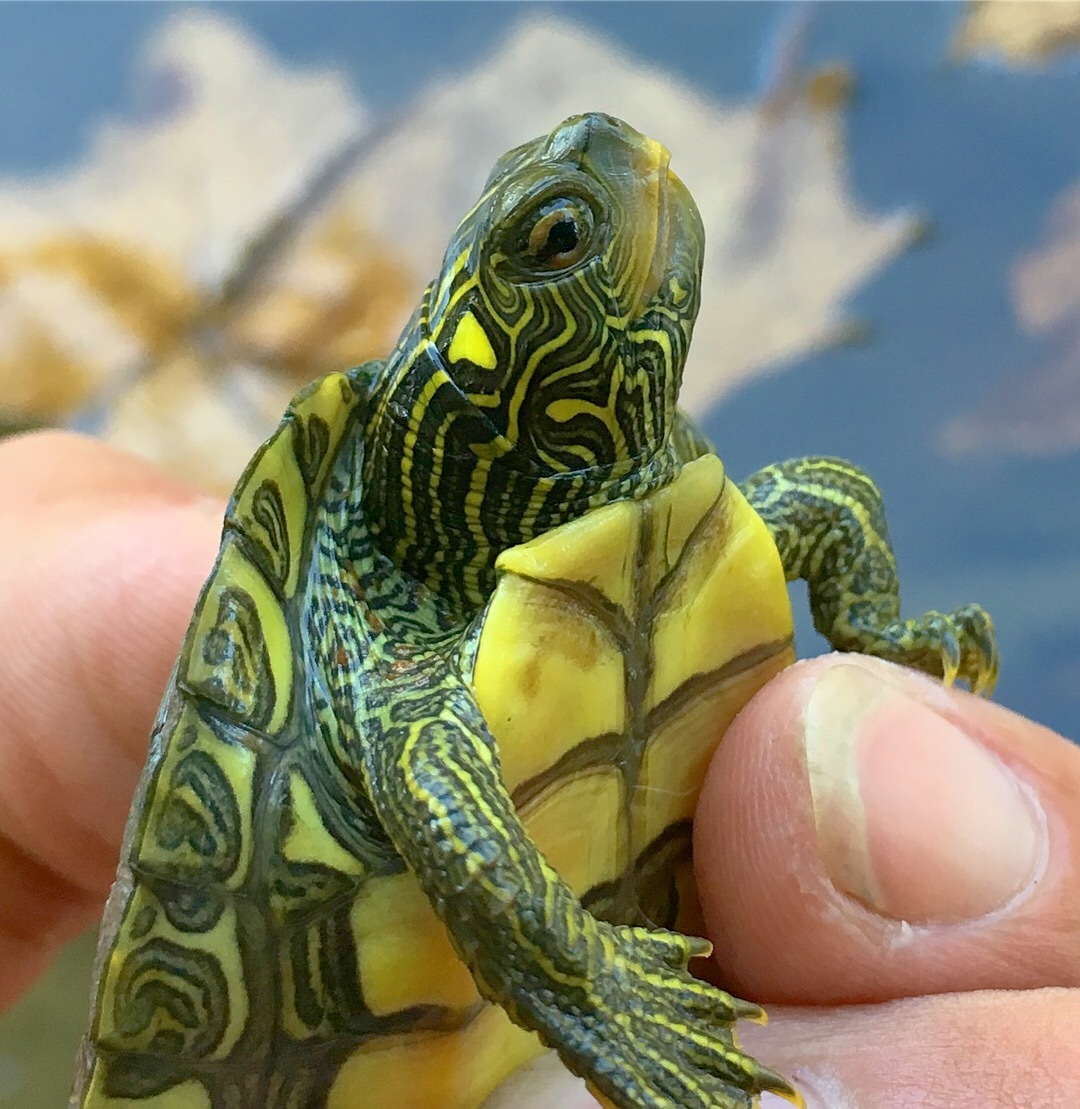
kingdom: Animalia
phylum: Chordata
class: Testudines
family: Emydidae
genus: Graptemys
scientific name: Graptemys geographica
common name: Common map turtle
